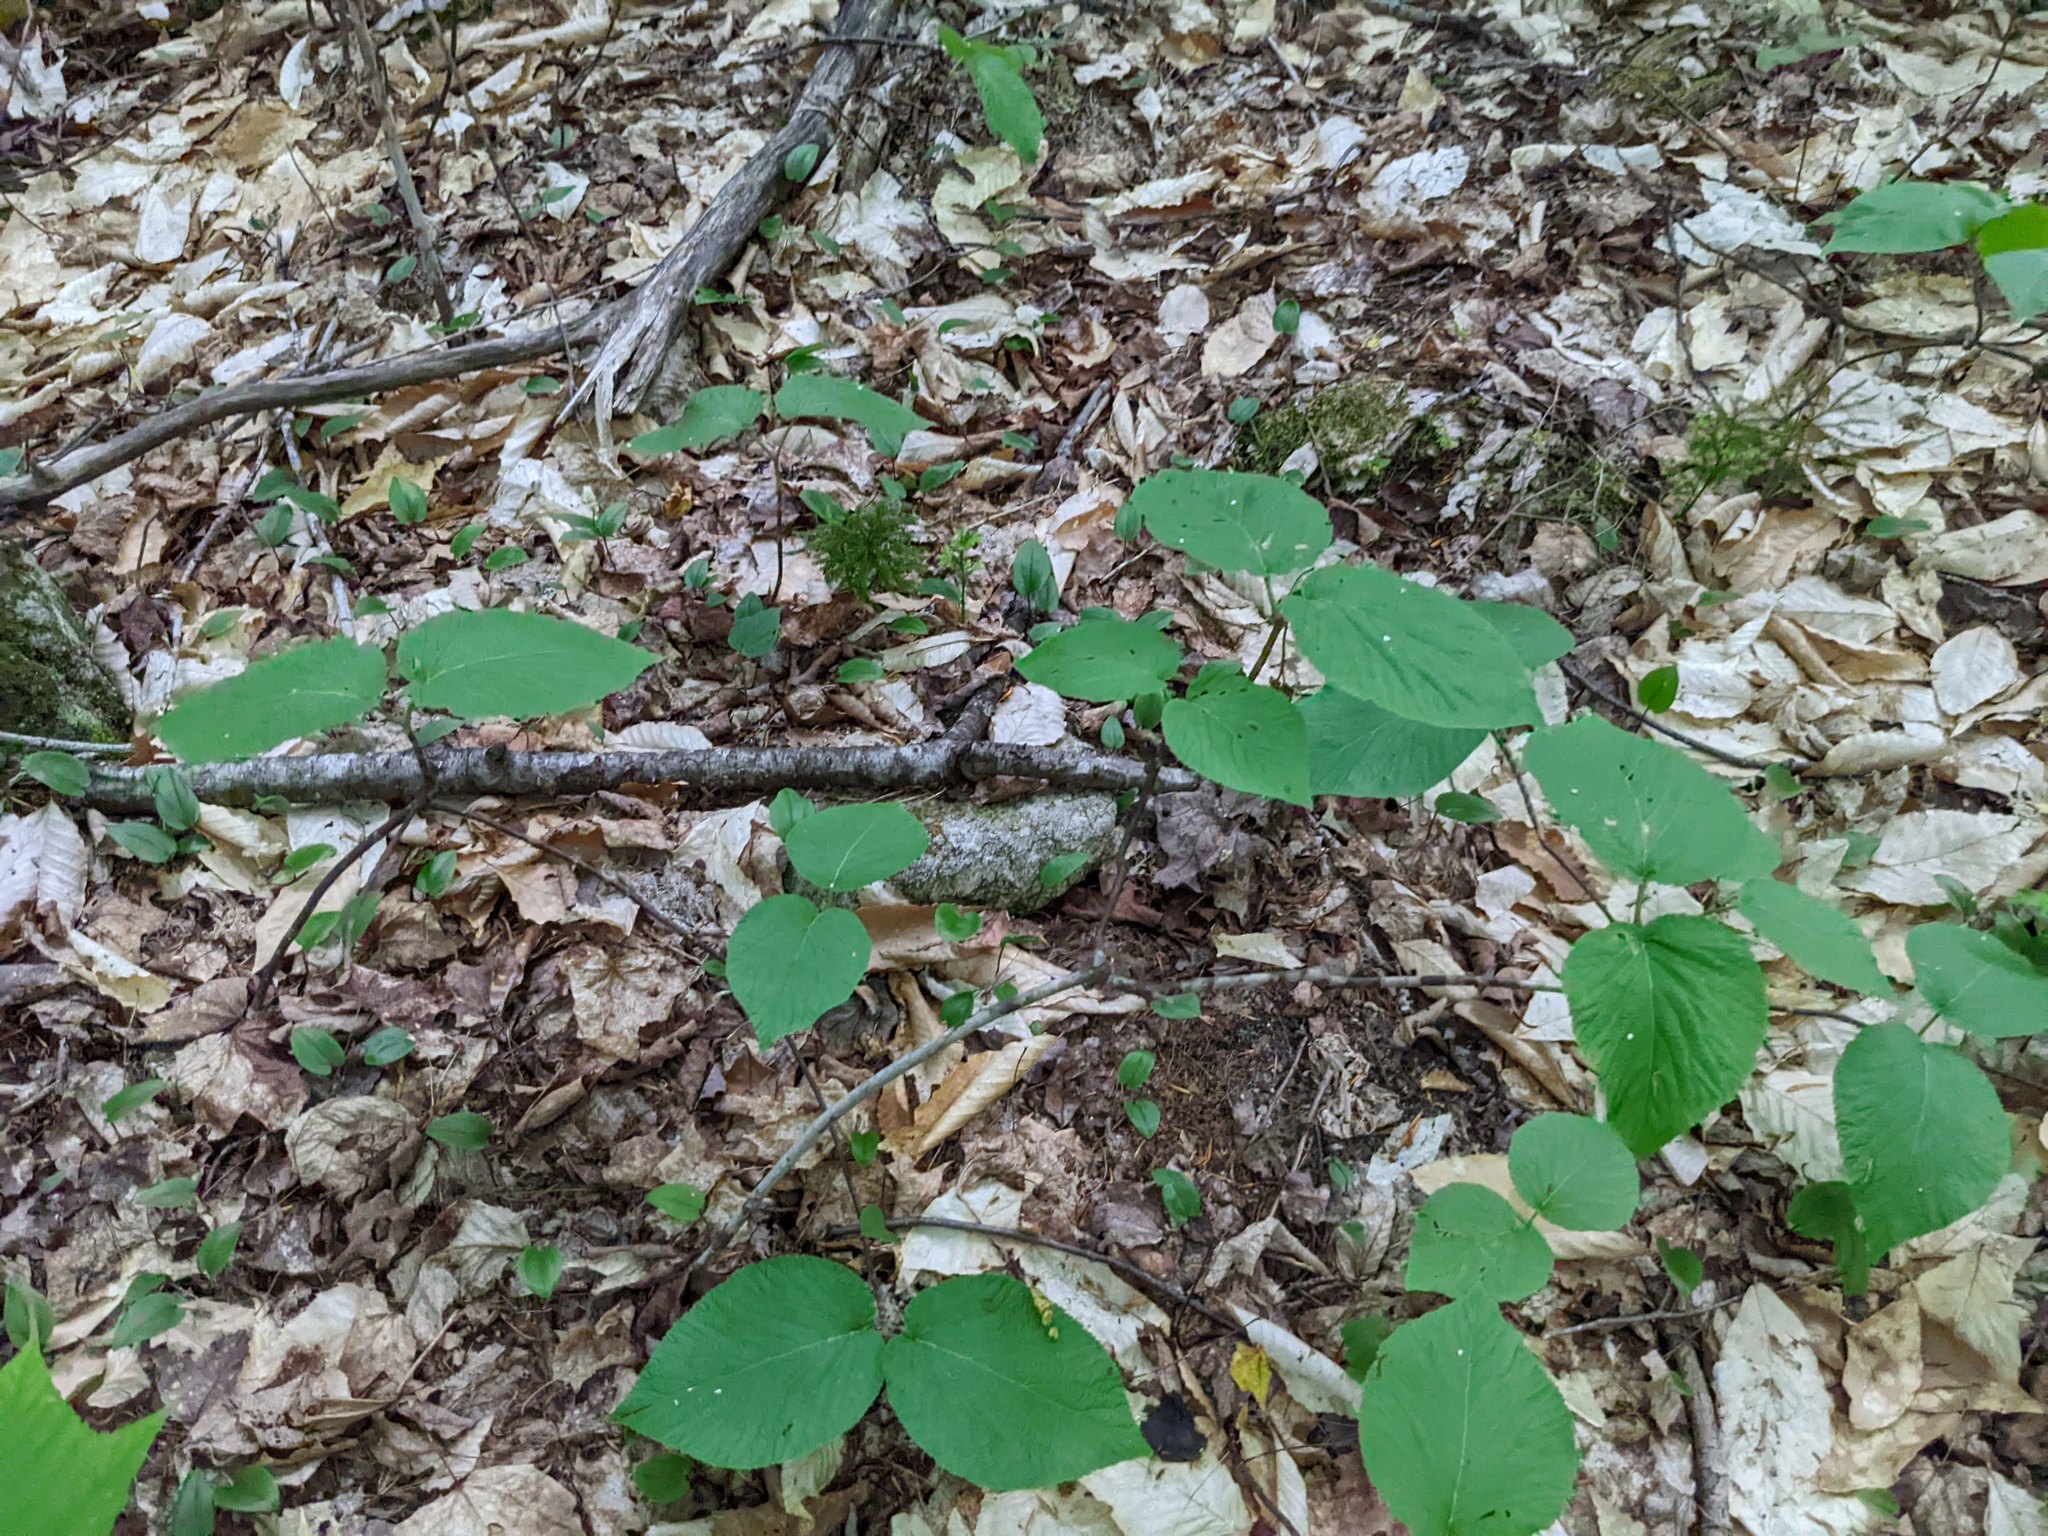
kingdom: Plantae
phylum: Tracheophyta
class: Magnoliopsida
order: Dipsacales
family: Viburnaceae
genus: Viburnum
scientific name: Viburnum lantanoides
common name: Hobblebush
